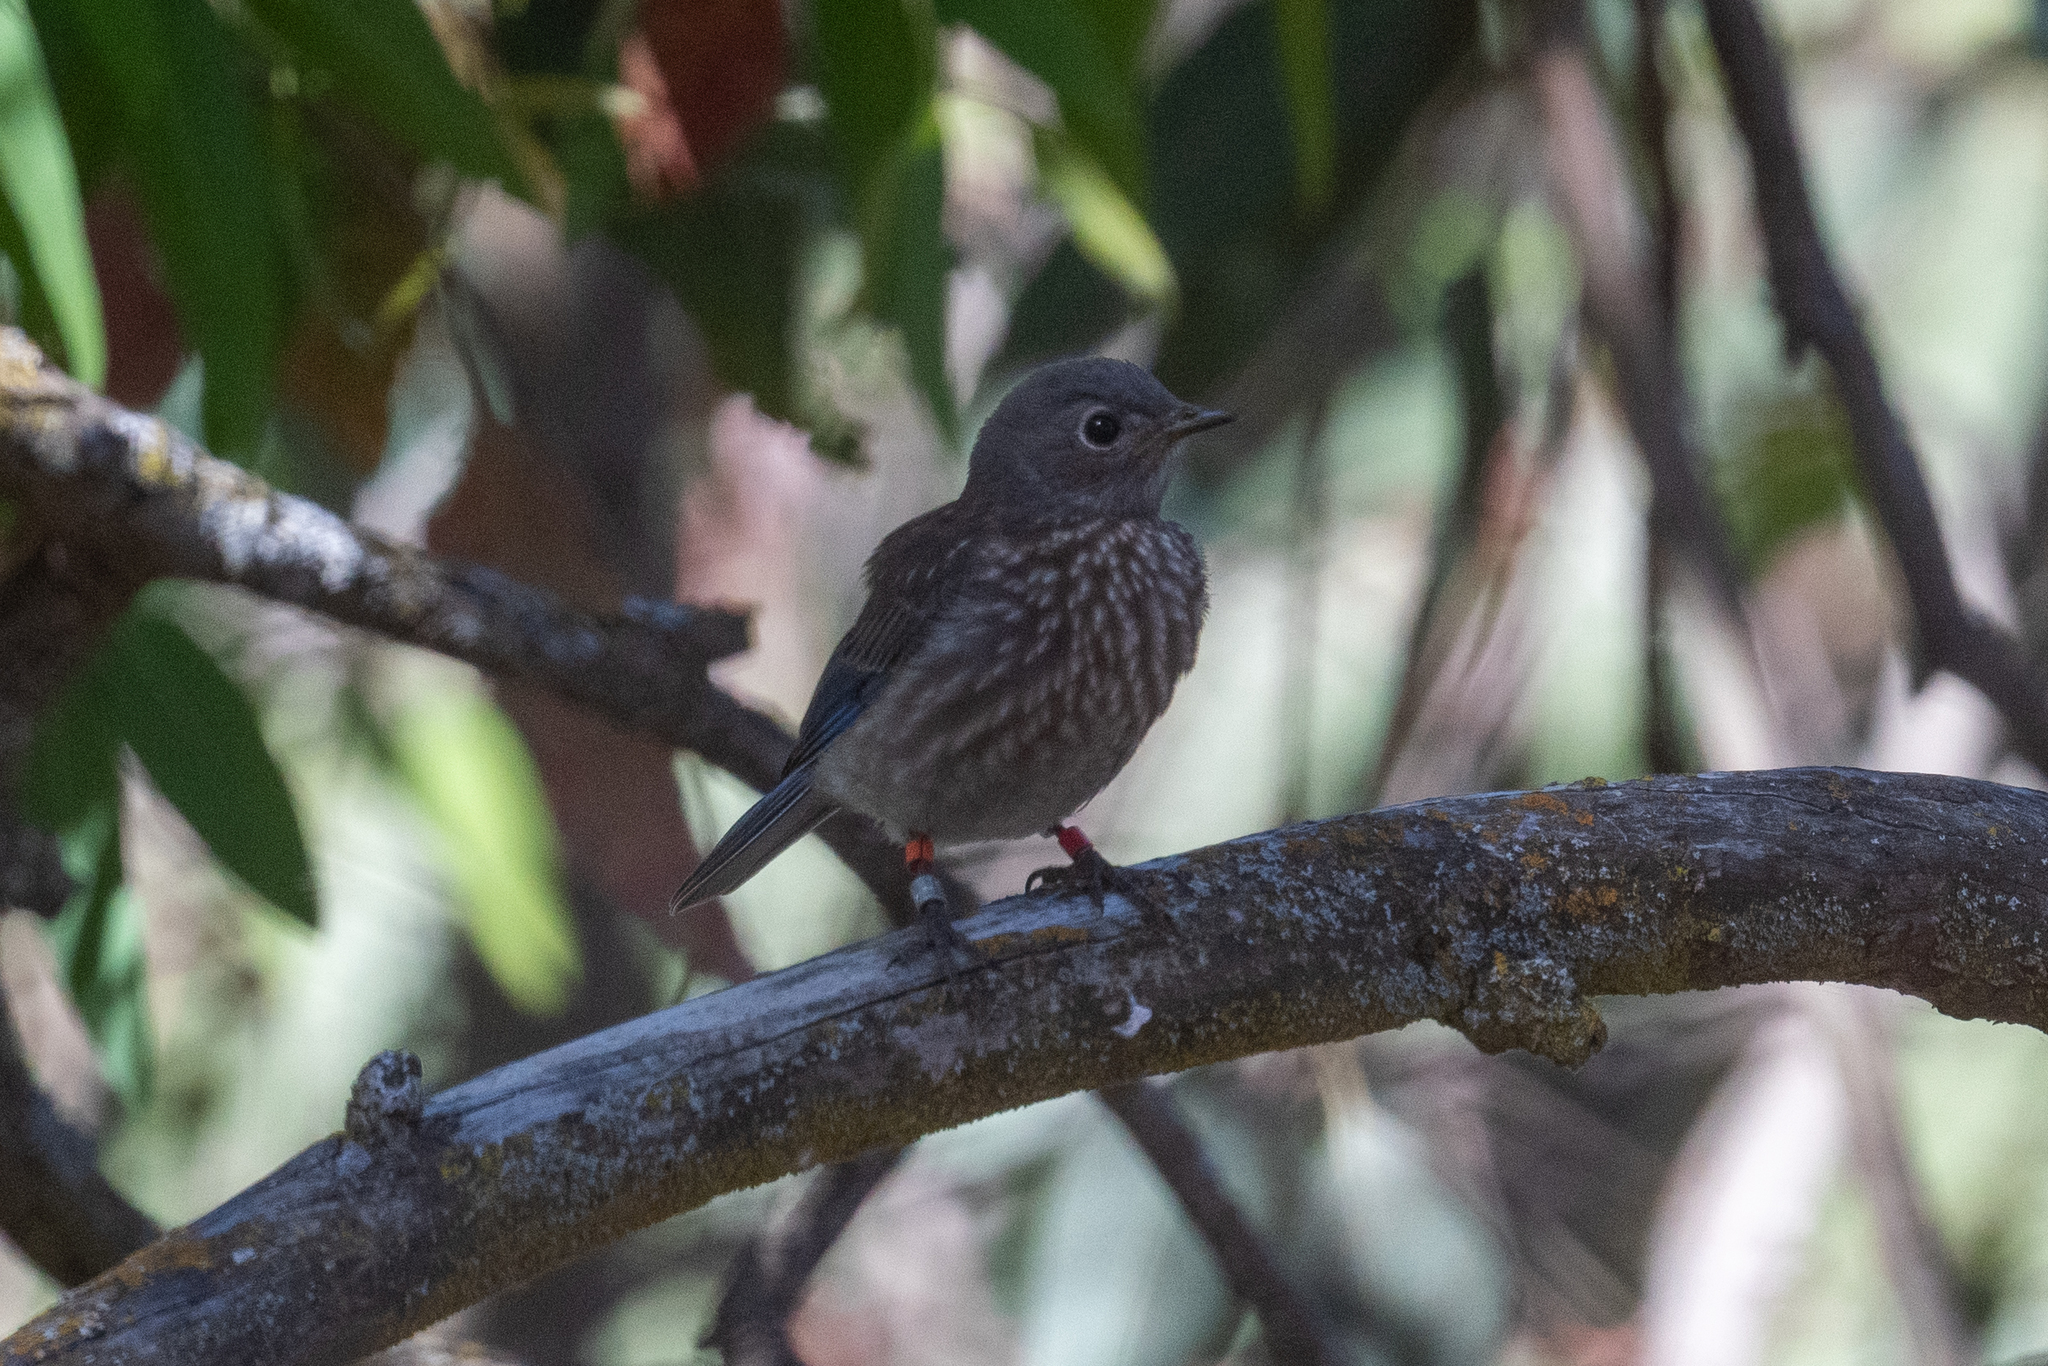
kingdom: Animalia
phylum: Chordata
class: Aves
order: Passeriformes
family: Turdidae
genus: Sialia
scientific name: Sialia mexicana
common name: Western bluebird
